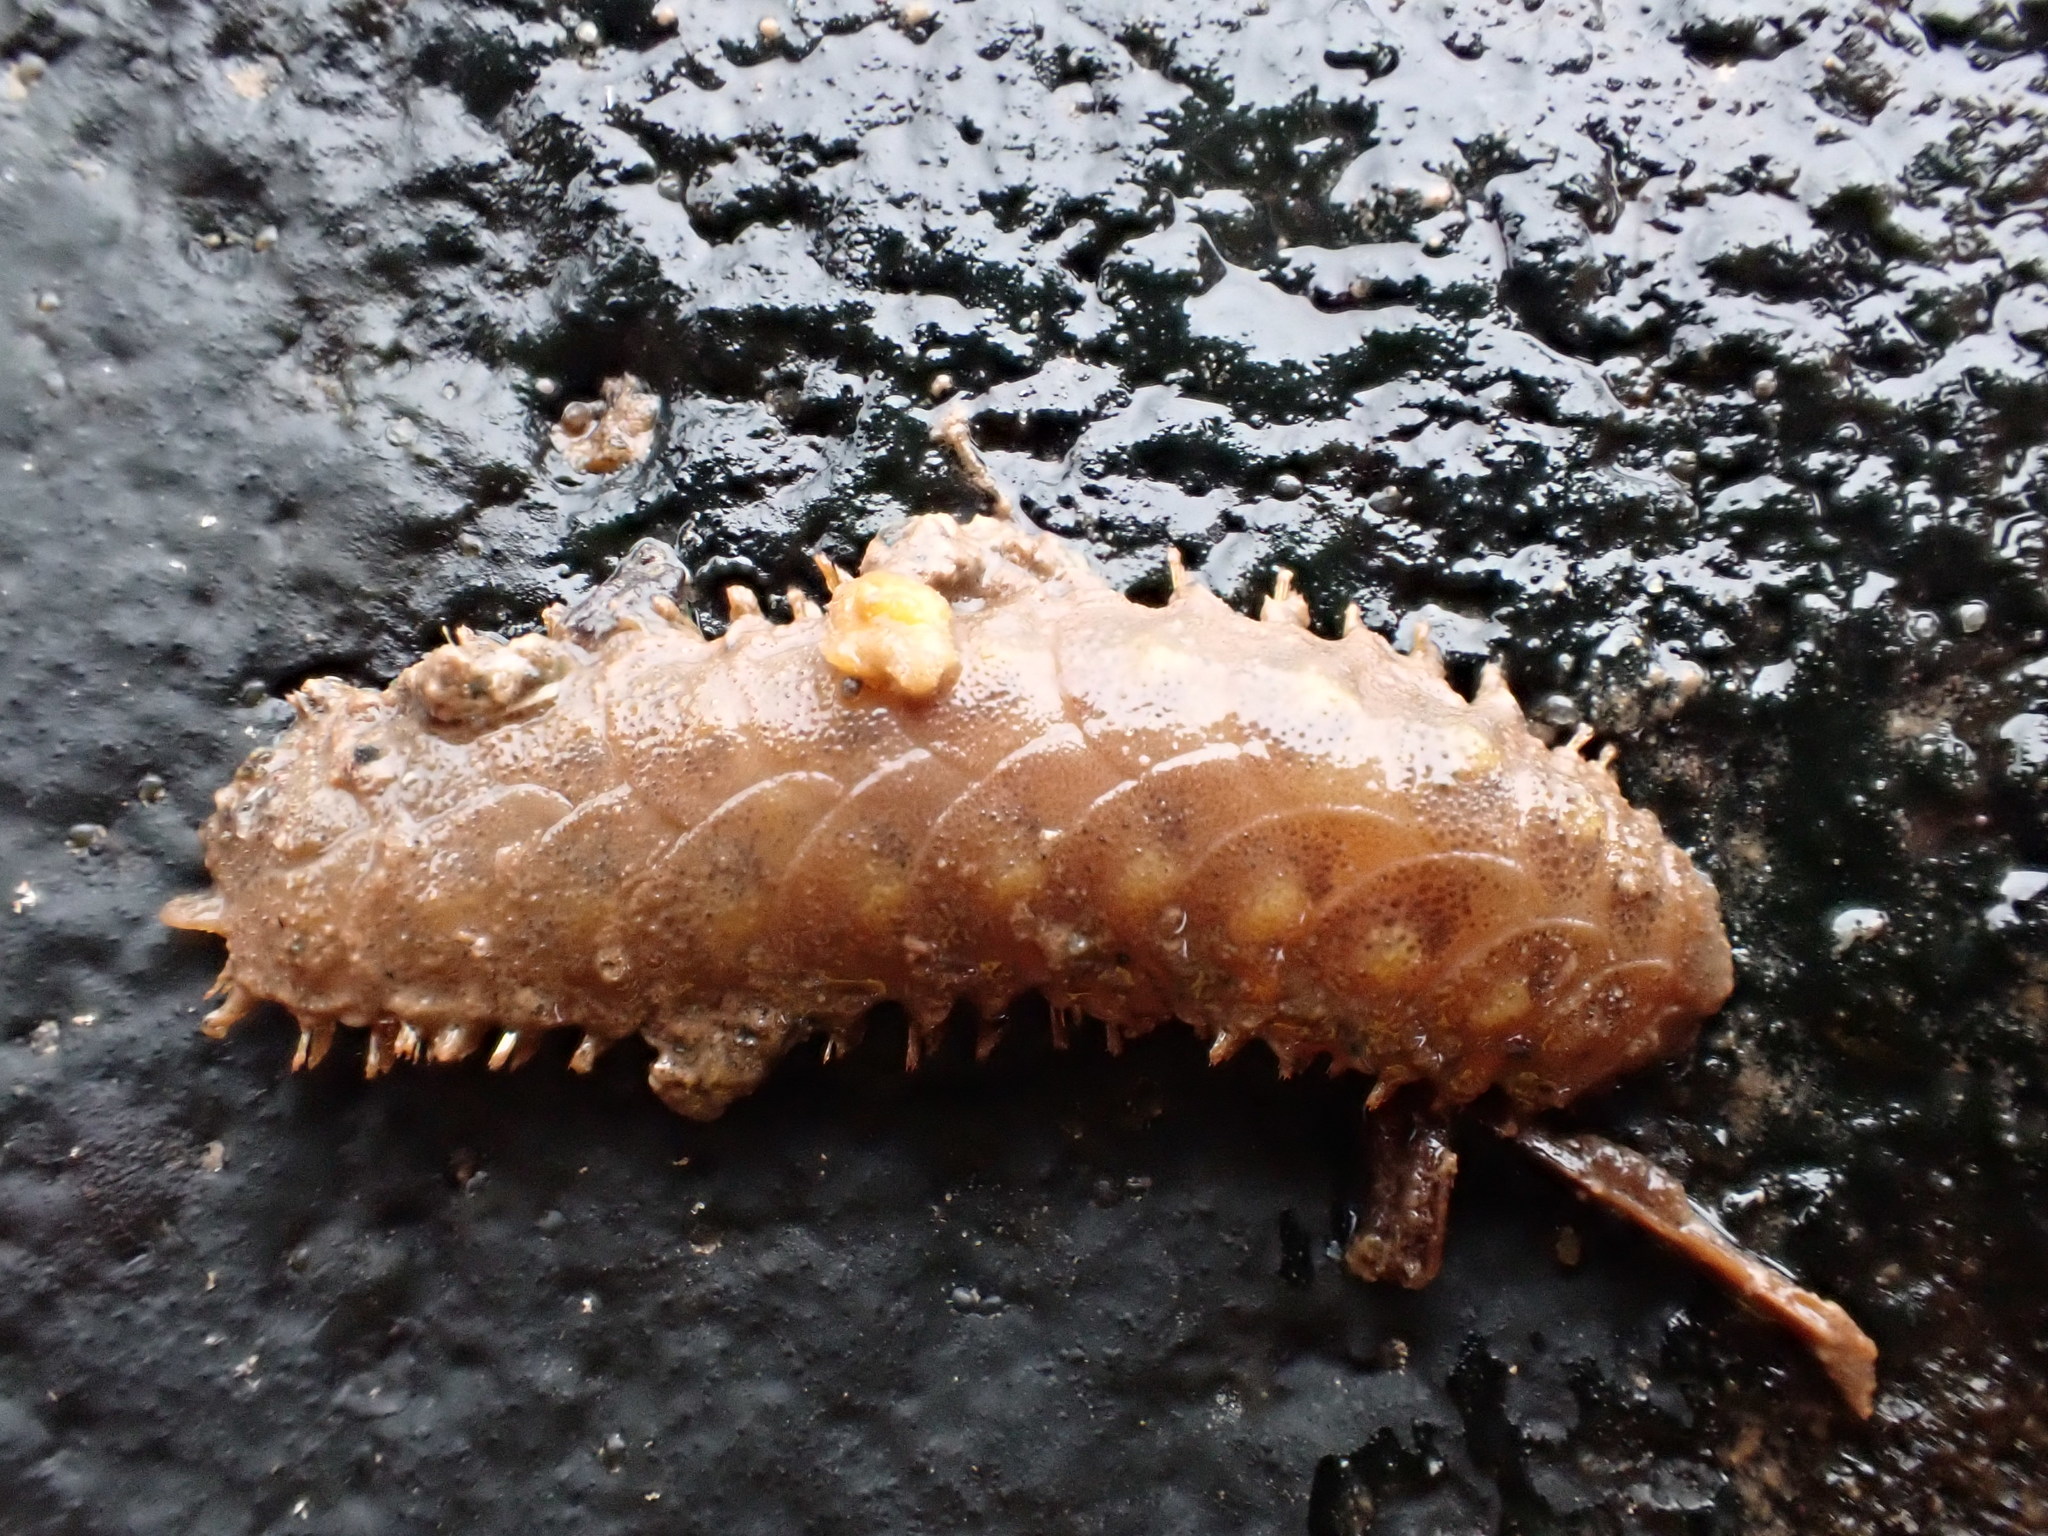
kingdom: Animalia
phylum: Annelida
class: Polychaeta
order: Phyllodocida
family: Polynoidae
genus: Lepidonotus
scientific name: Lepidonotus squamatus
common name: Twelve-scaled worm
